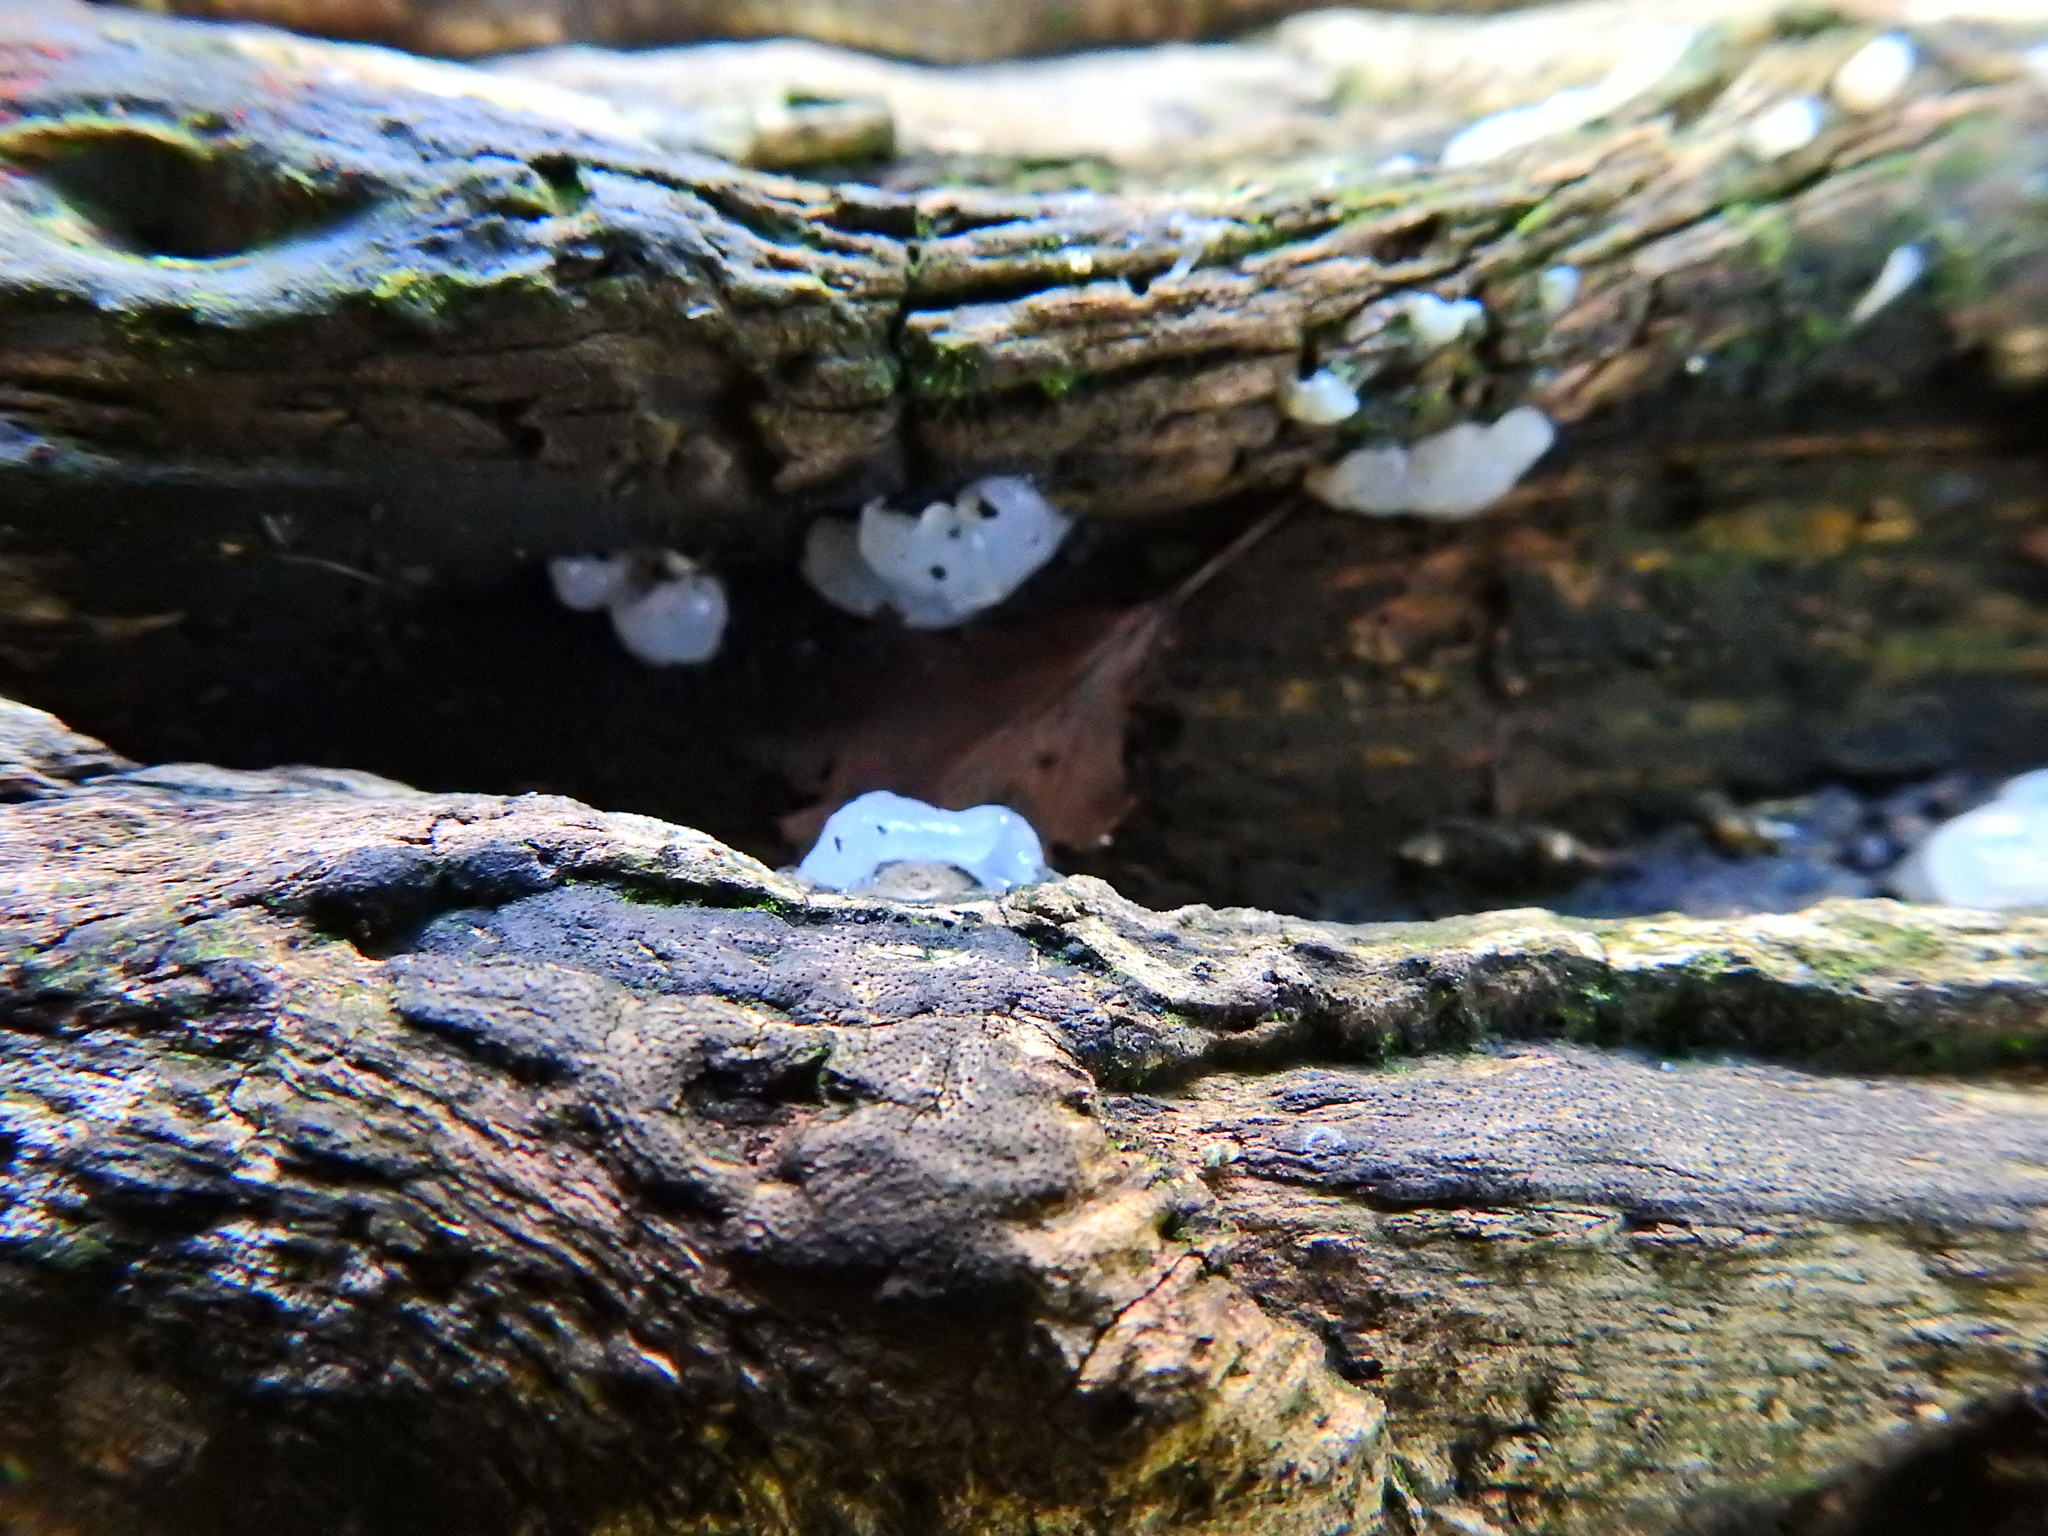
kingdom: Fungi
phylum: Basidiomycota
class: Agaricomycetes
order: Auriculariales
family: Auriculariaceae
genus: Exidia
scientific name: Exidia thuretiana
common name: White brain
